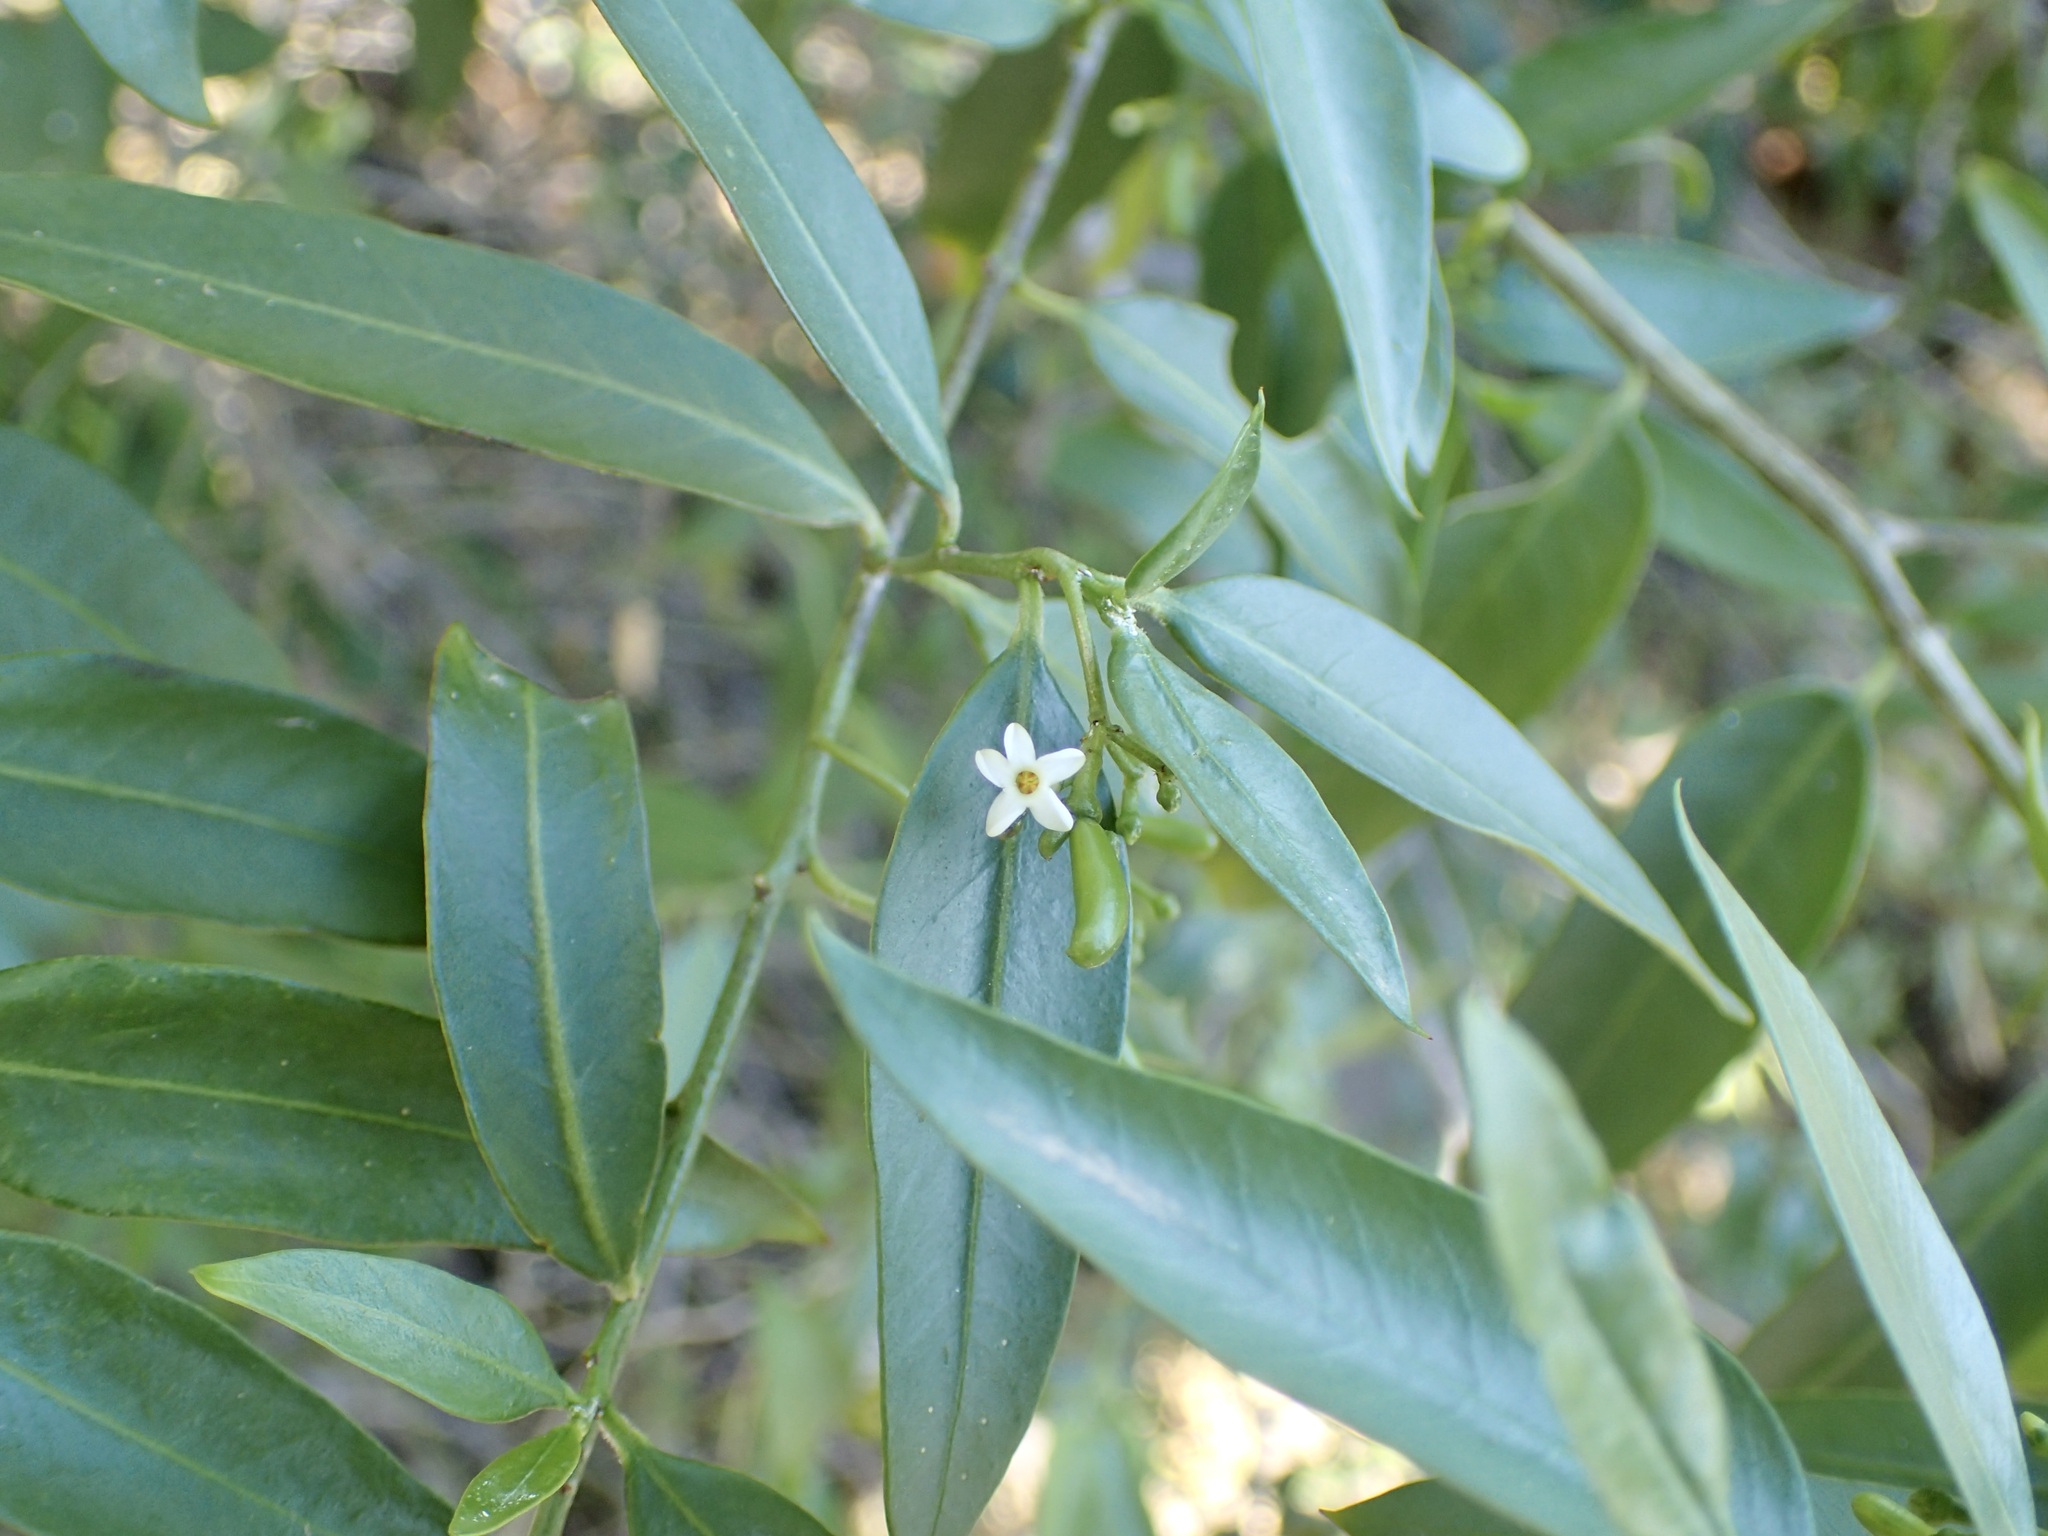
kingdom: Plantae
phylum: Tracheophyta
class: Magnoliopsida
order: Gentianales
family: Apocynaceae
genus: Vallesia
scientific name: Vallesia glabra
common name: Pearlberry
